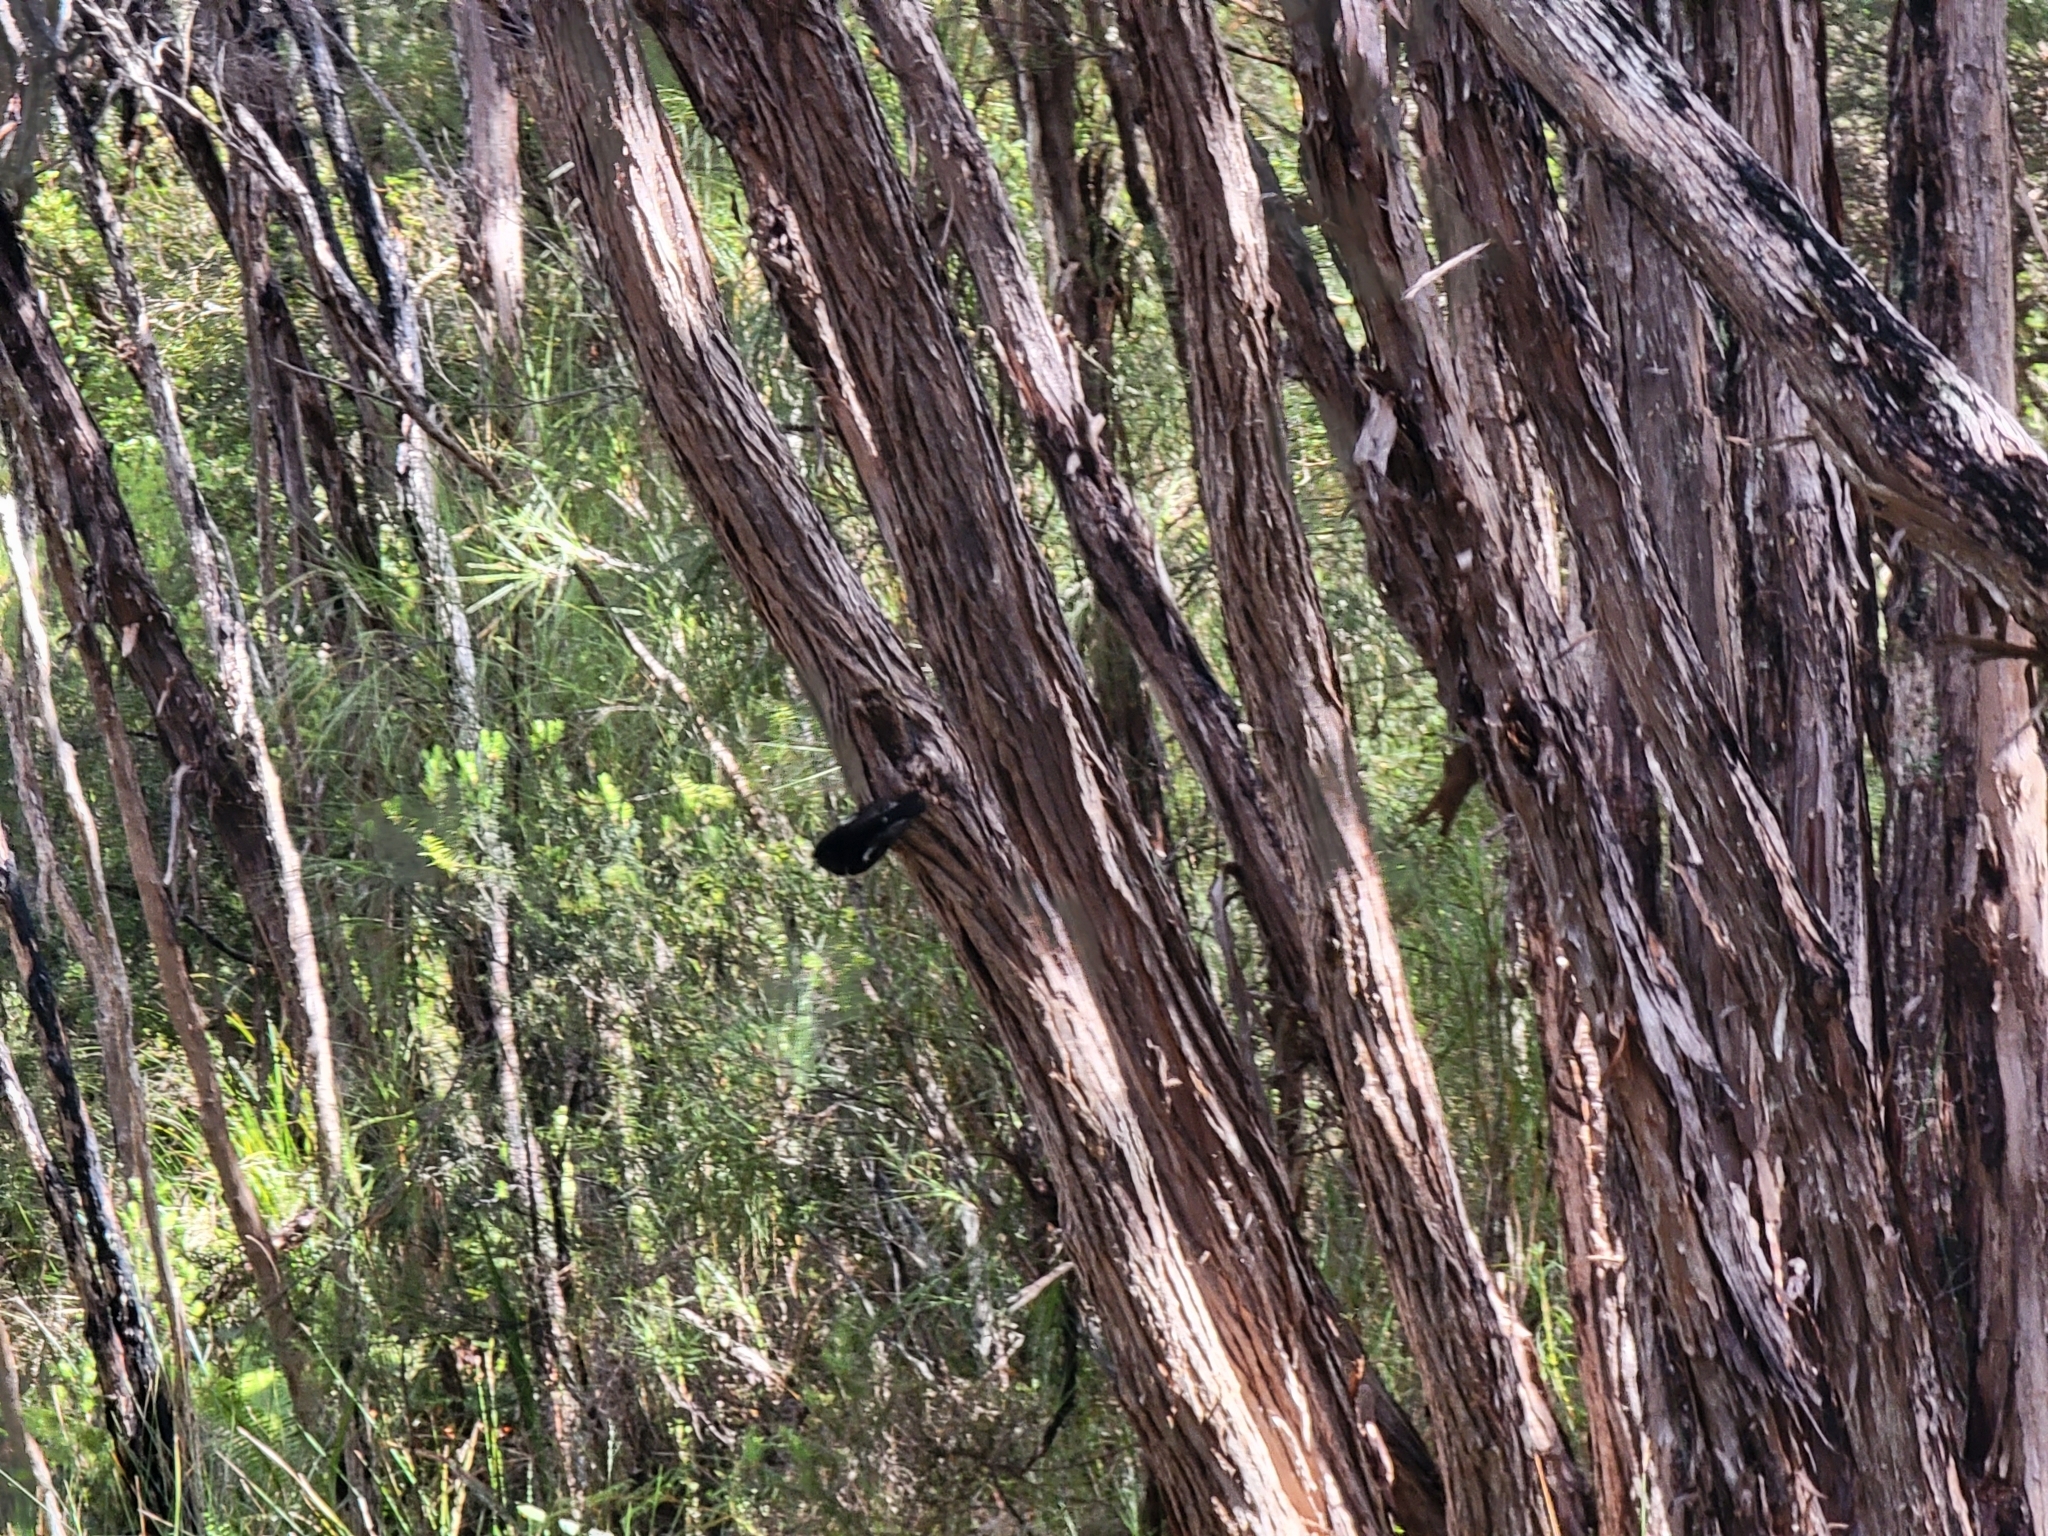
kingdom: Animalia
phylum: Chordata
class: Aves
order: Passeriformes
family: Petroicidae
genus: Petroica
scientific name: Petroica macrocephala
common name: Tomtit
